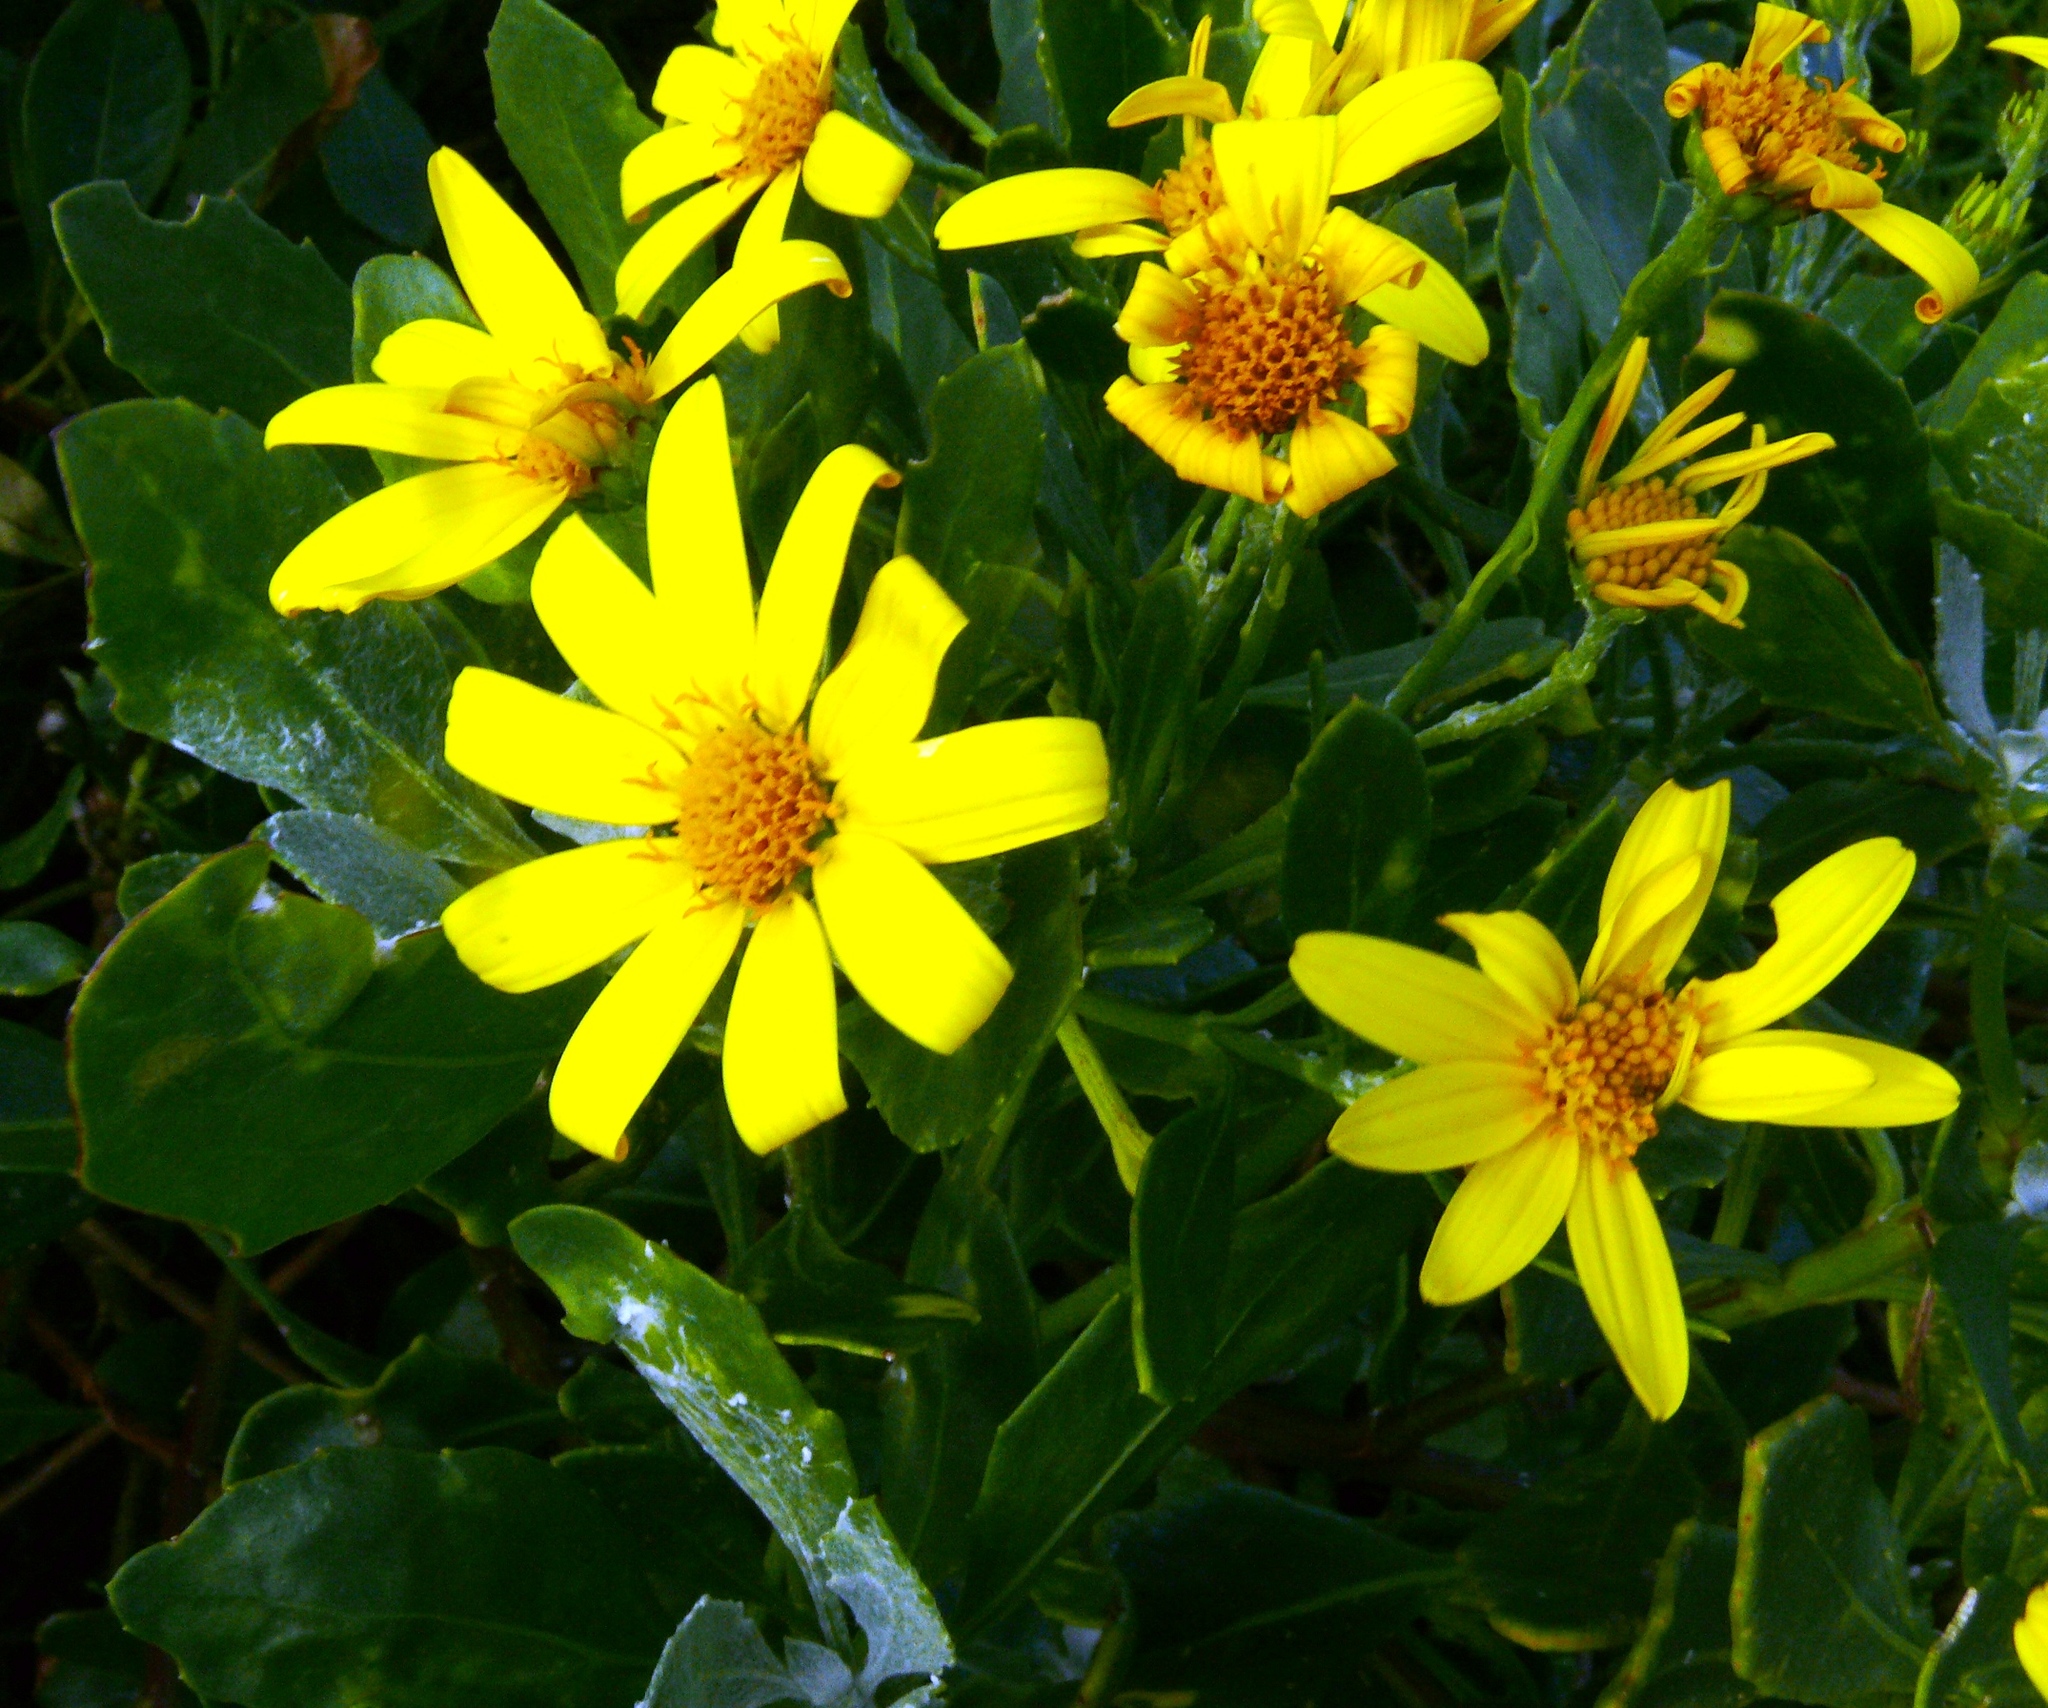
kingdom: Plantae
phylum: Tracheophyta
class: Magnoliopsida
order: Asterales
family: Asteraceae
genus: Osteospermum
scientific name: Osteospermum moniliferum
